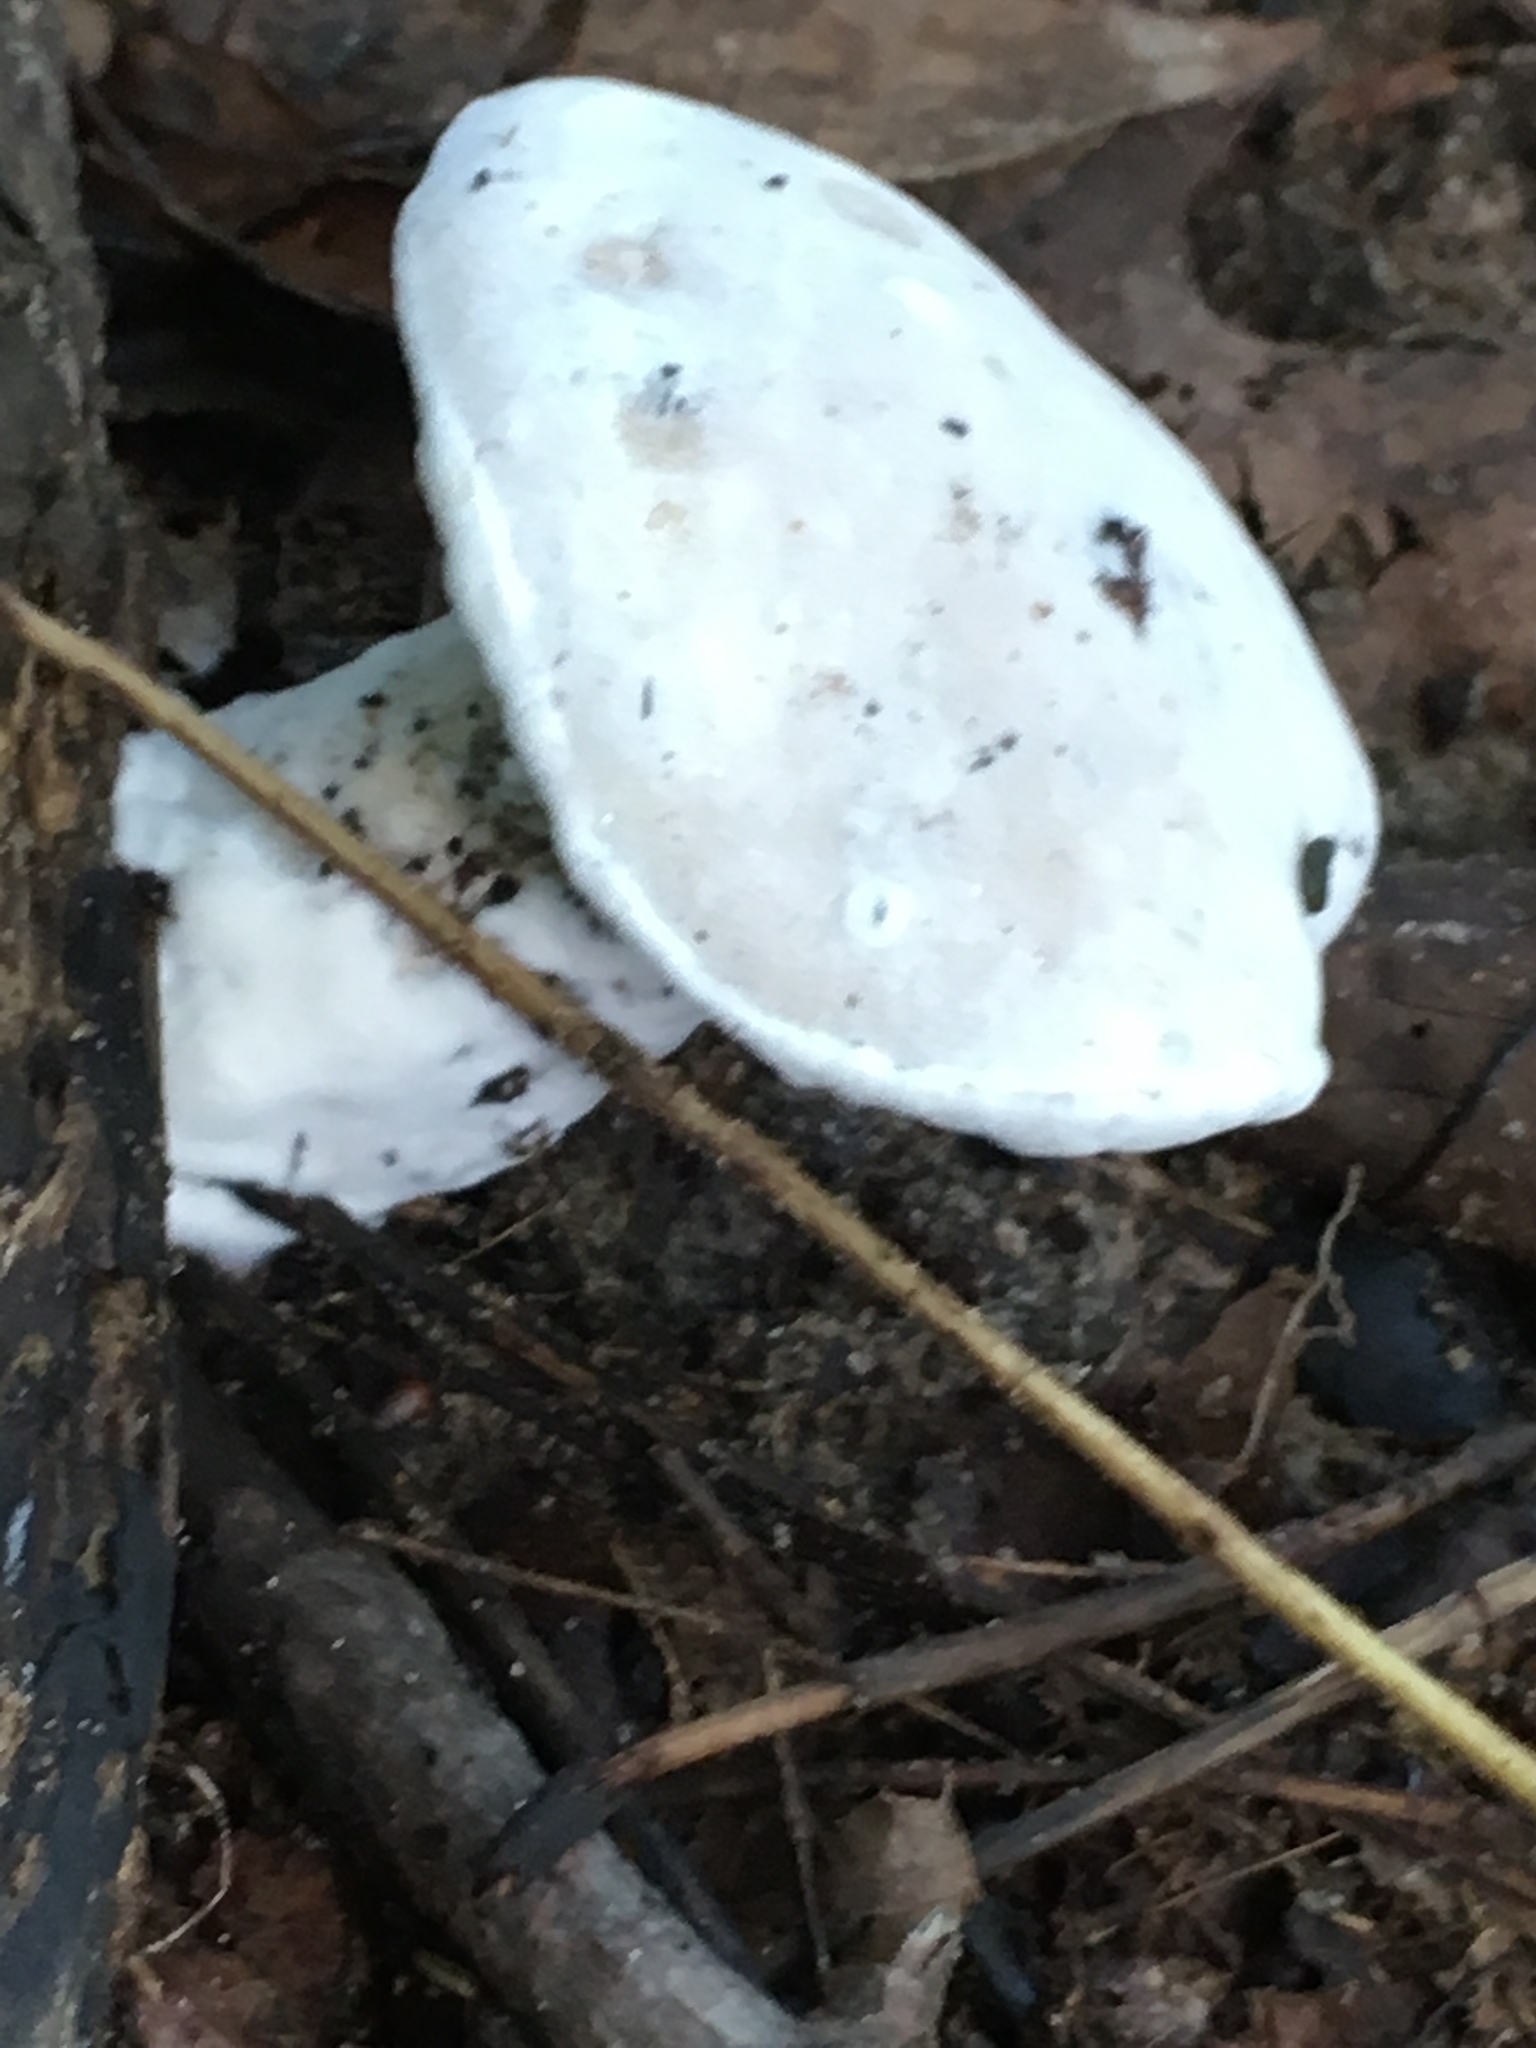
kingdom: Fungi
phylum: Ascomycota
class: Sordariomycetes
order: Hypocreales
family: Hypocreaceae
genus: Hypomyces
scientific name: Hypomyces chrysospermus
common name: Bolete mould
